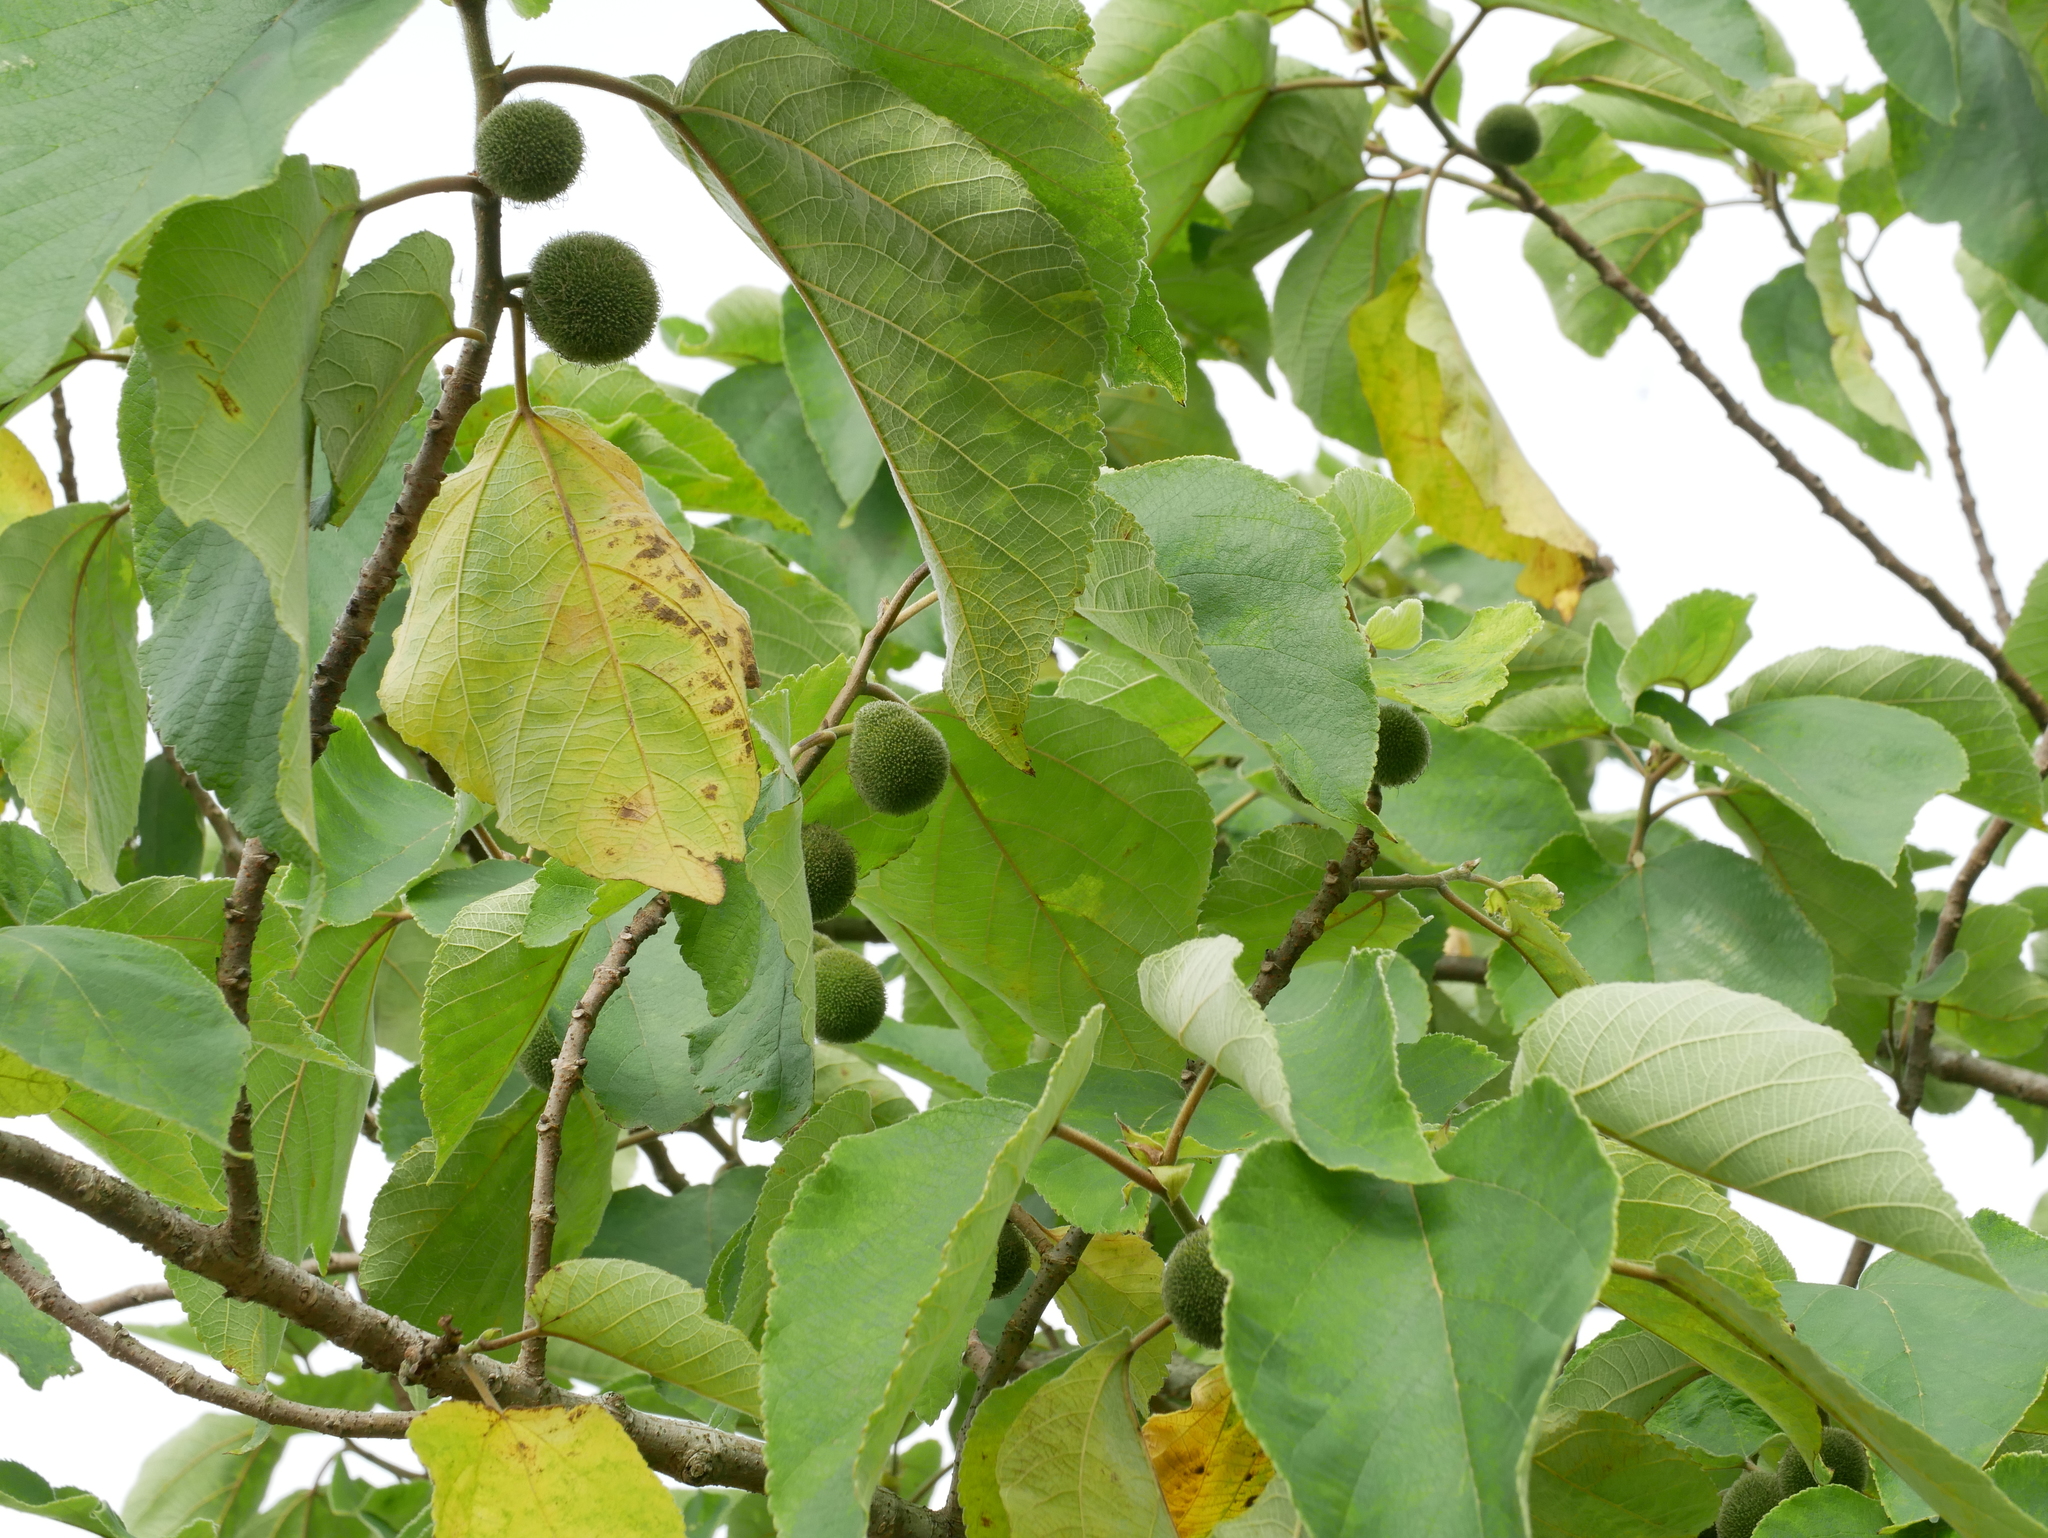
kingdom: Plantae
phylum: Tracheophyta
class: Magnoliopsida
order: Rosales
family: Moraceae
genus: Broussonetia
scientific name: Broussonetia papyrifera
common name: Paper mulberry
